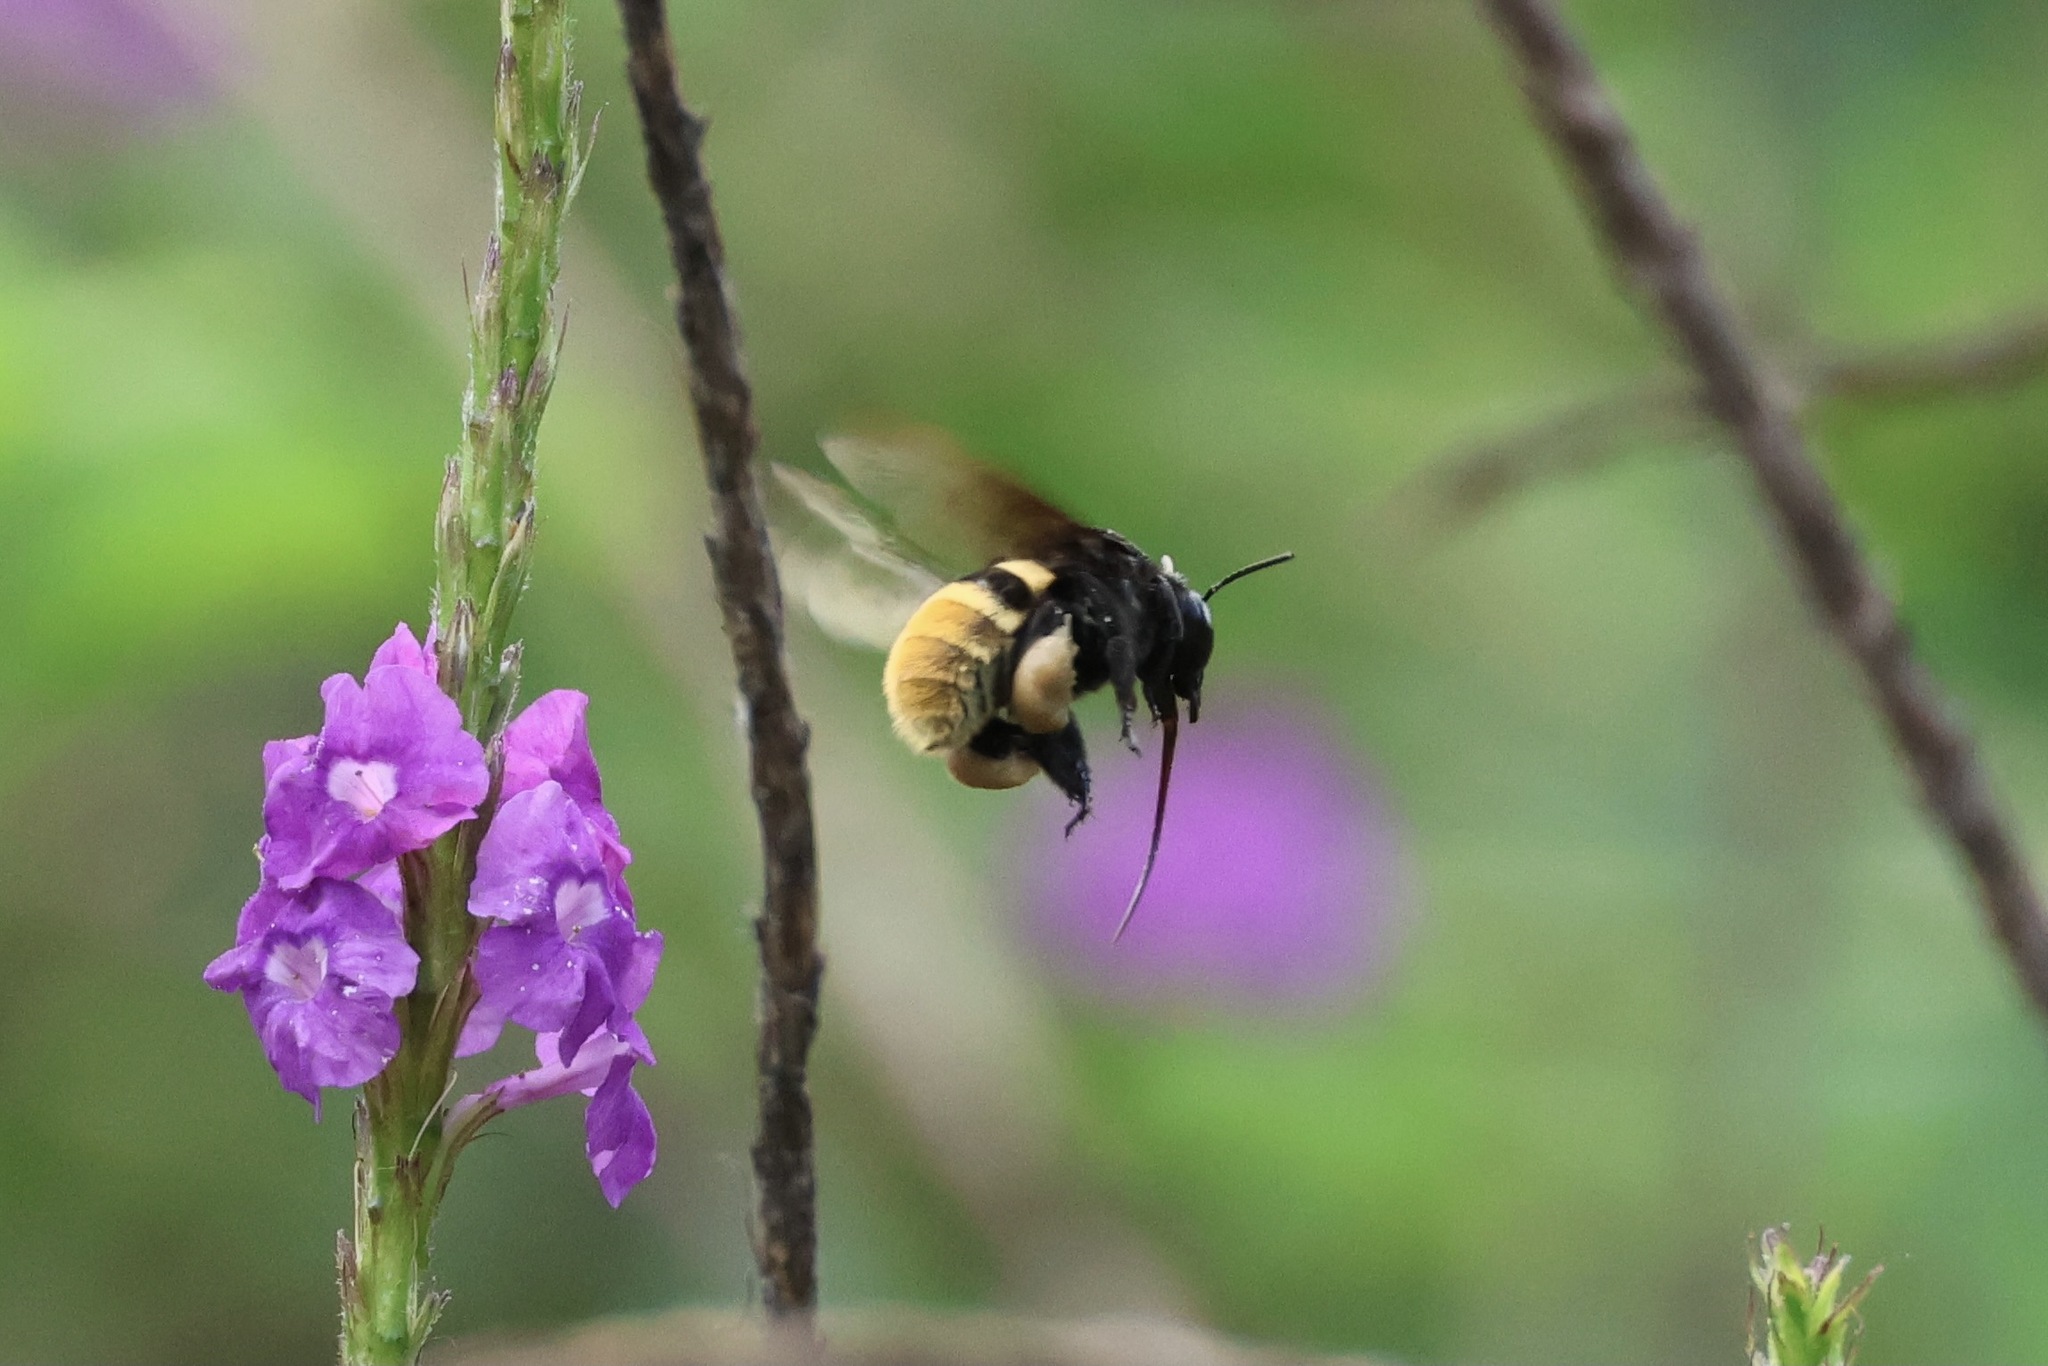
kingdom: Animalia
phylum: Arthropoda
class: Insecta
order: Hymenoptera
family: Apidae
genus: Eulaema
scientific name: Eulaema cingulata
